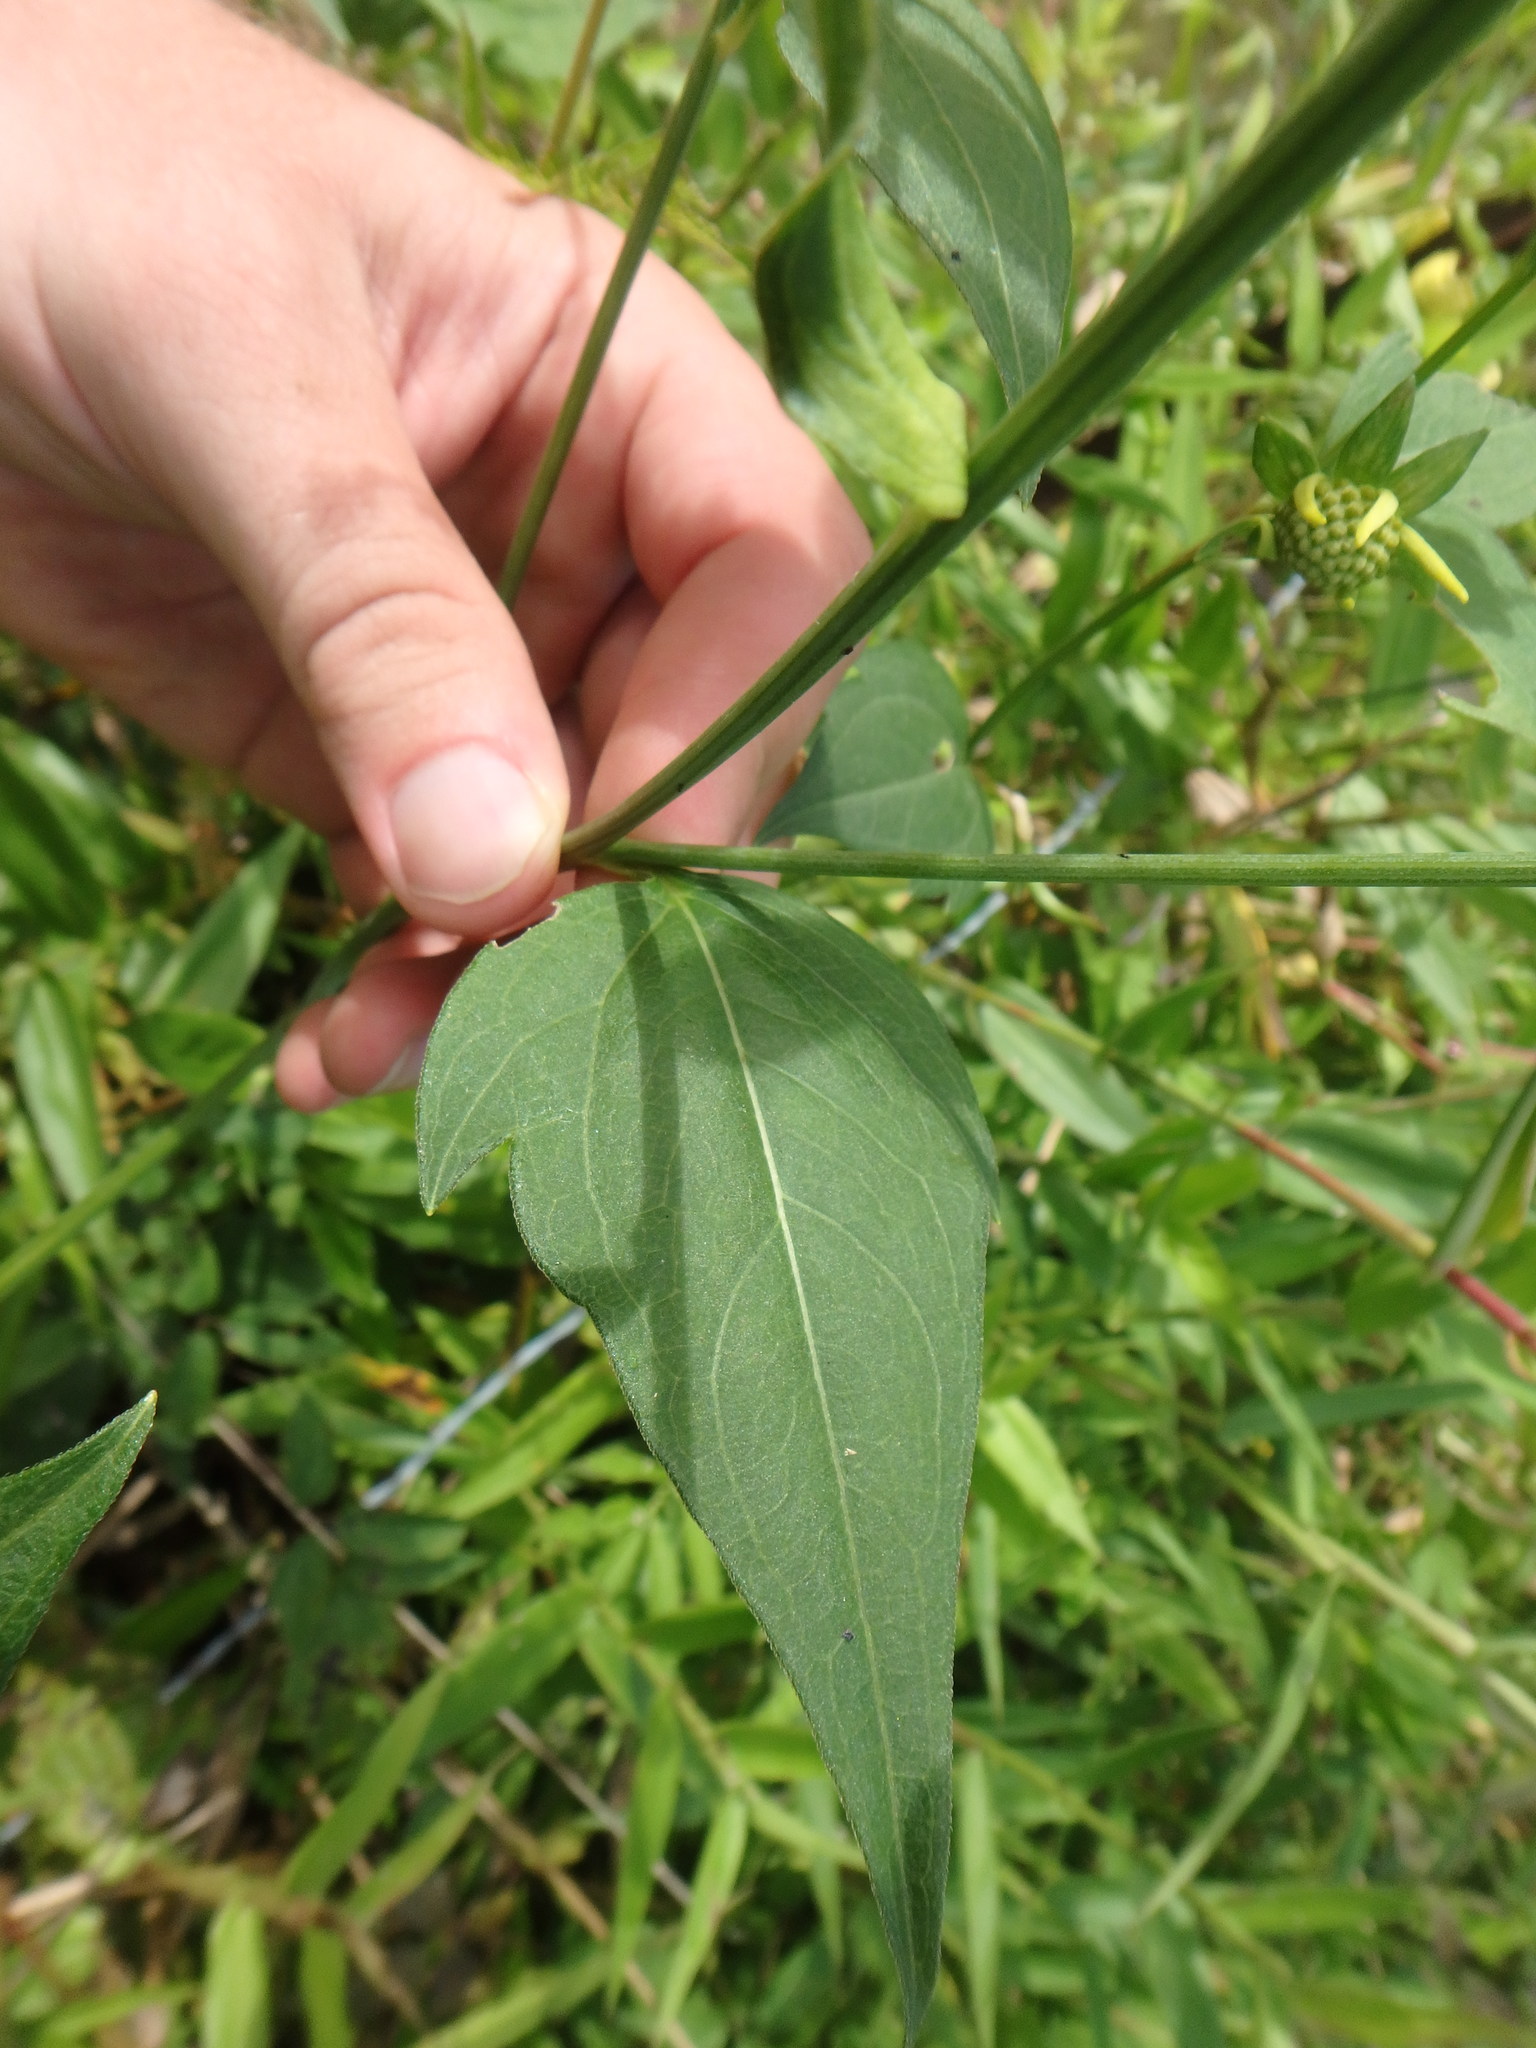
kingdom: Plantae
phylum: Tracheophyta
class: Magnoliopsida
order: Asterales
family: Asteraceae
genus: Rudbeckia
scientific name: Rudbeckia laciniata
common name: Coneflower
